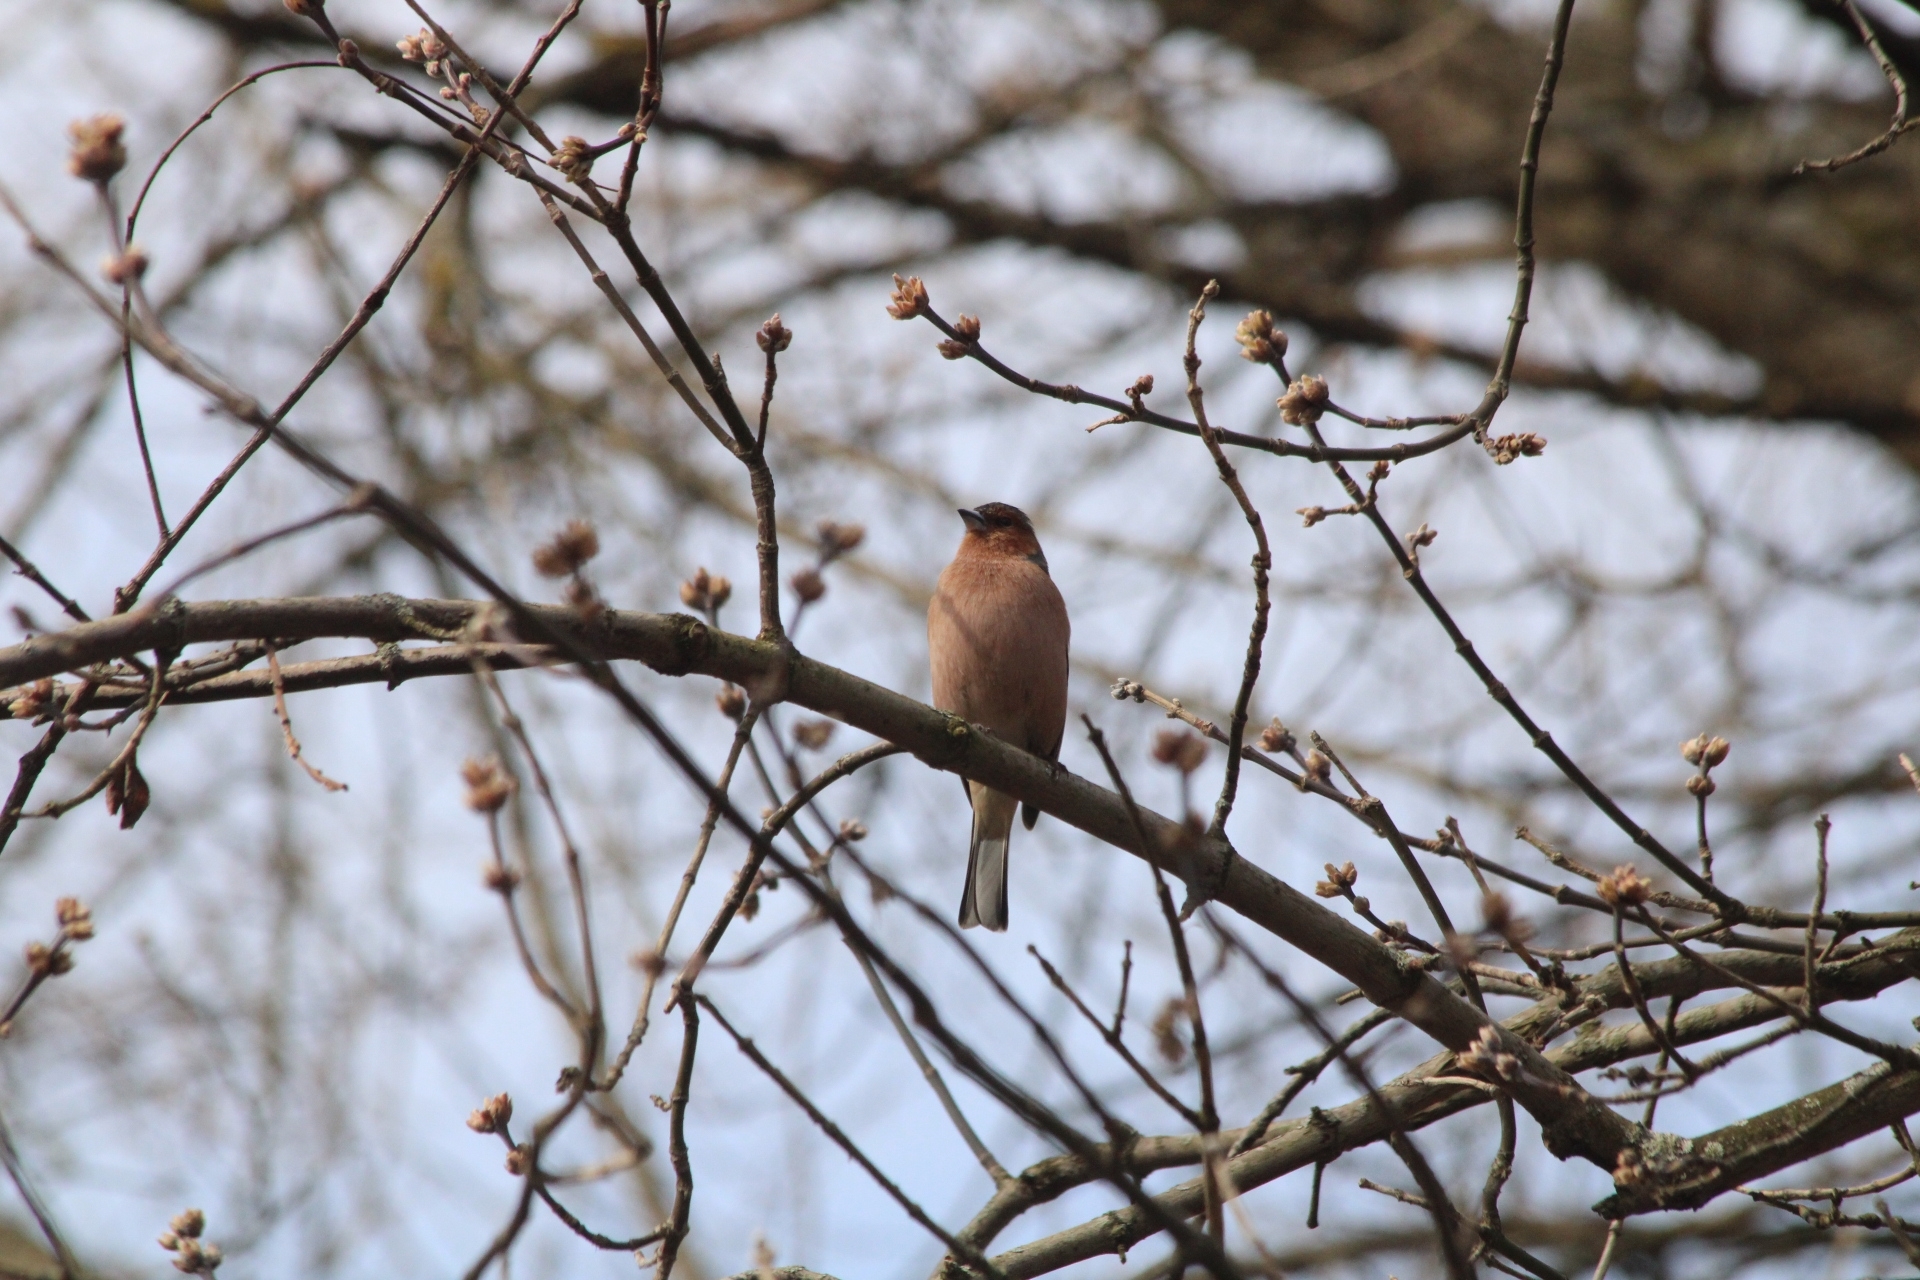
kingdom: Animalia
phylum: Chordata
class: Aves
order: Passeriformes
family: Fringillidae
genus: Fringilla
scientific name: Fringilla coelebs
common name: Common chaffinch
